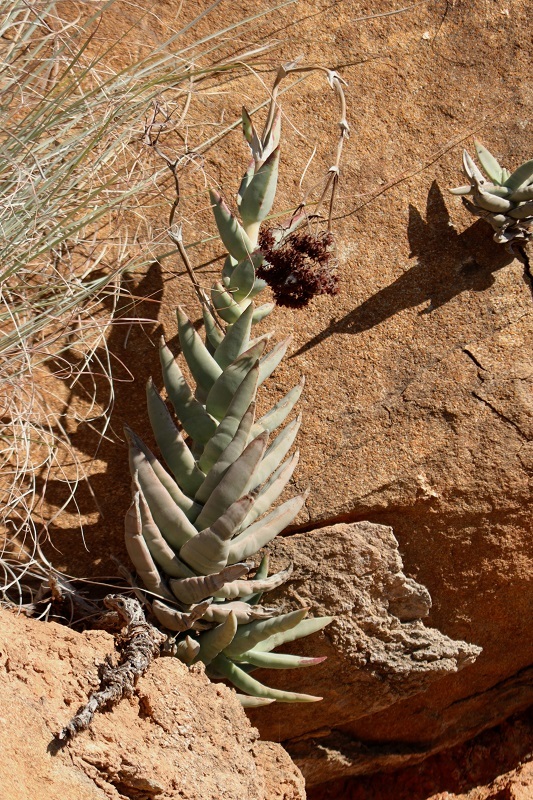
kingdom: Plantae
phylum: Tracheophyta
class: Magnoliopsida
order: Saxifragales
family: Crassulaceae
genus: Crassula
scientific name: Crassula perfoliata
